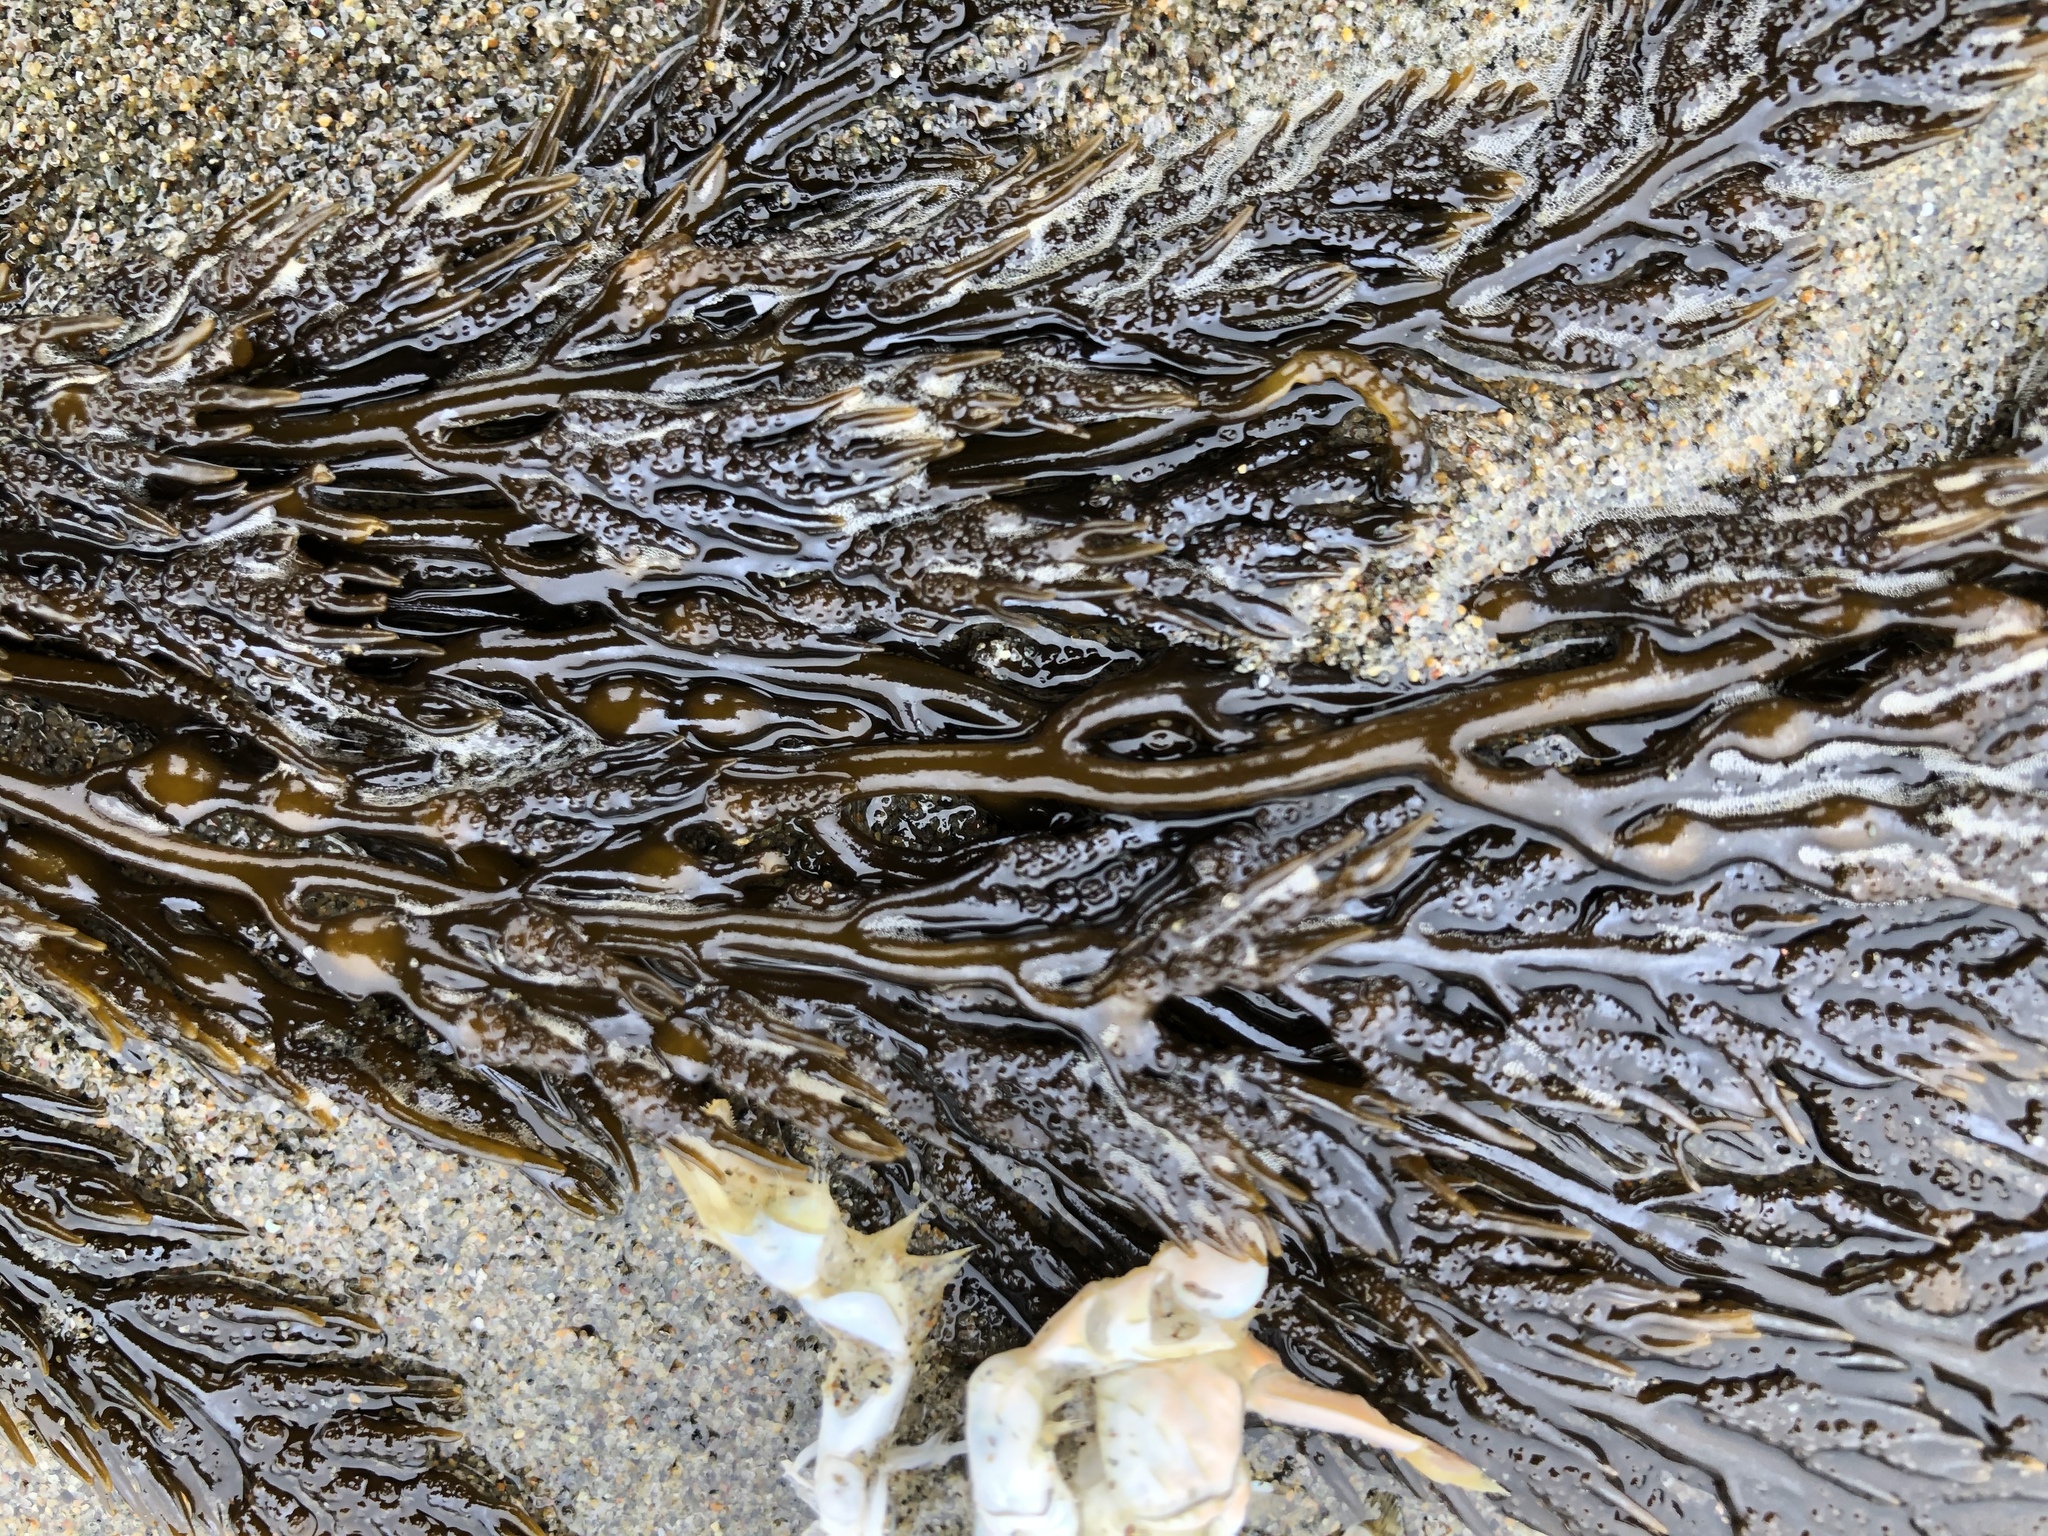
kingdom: Chromista
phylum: Ochrophyta
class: Phaeophyceae
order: Fucales
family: Sargassaceae
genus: Stephanocystis
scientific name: Stephanocystis
